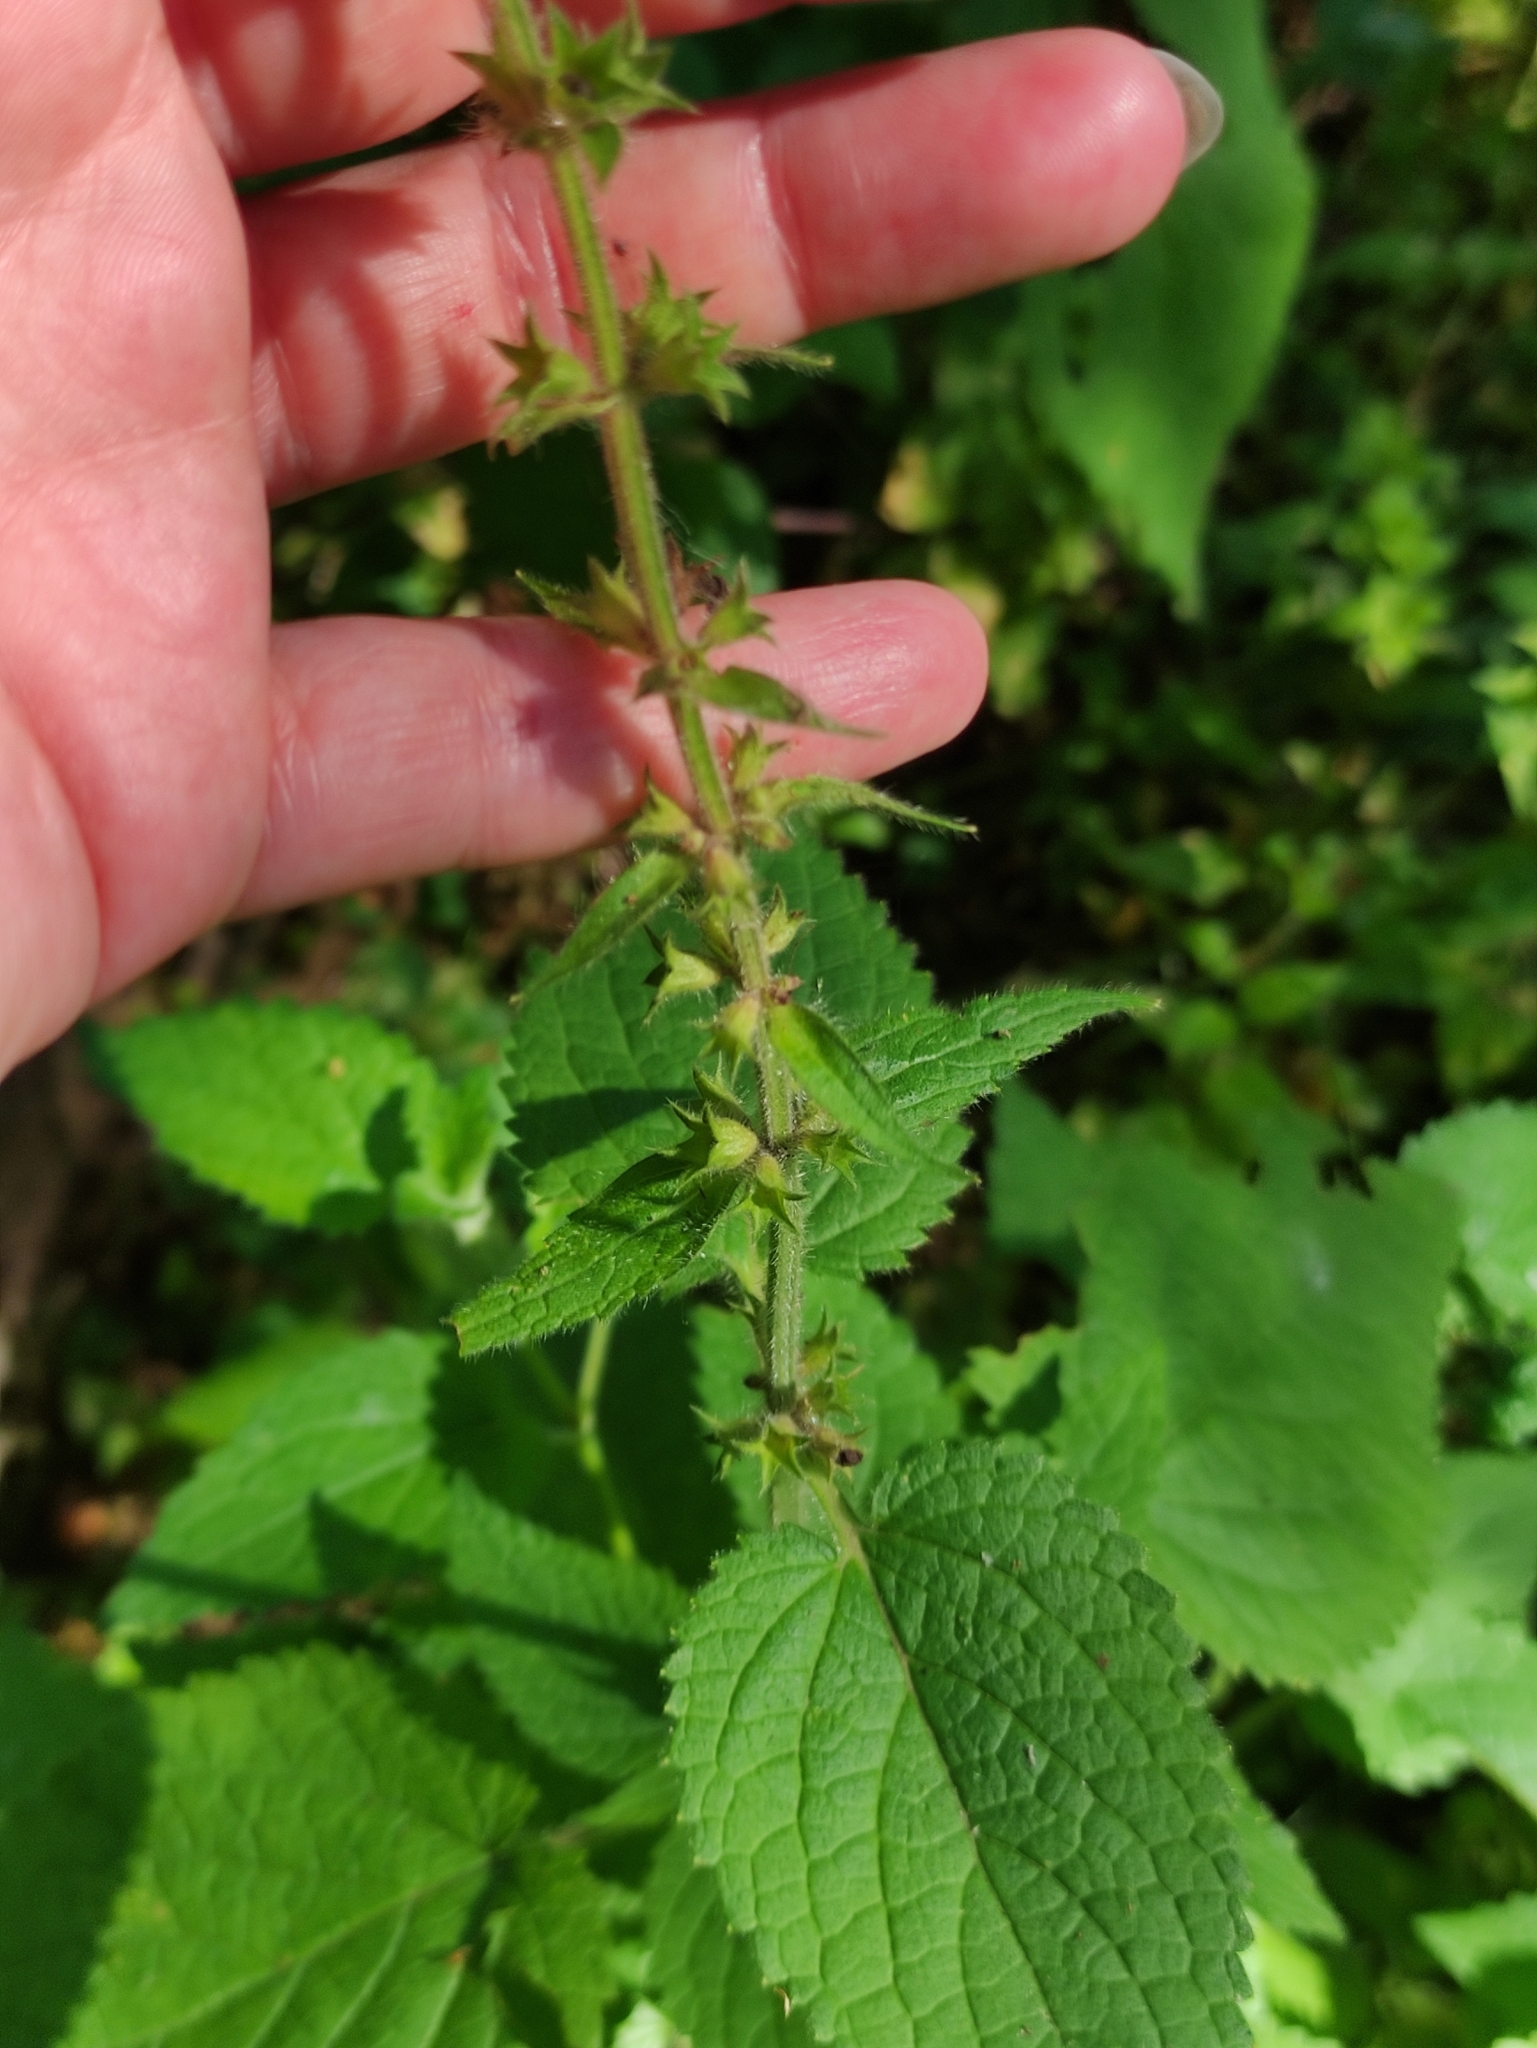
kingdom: Plantae
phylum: Tracheophyta
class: Magnoliopsida
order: Lamiales
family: Lamiaceae
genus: Stachys
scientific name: Stachys sylvatica
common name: Hedge woundwort
